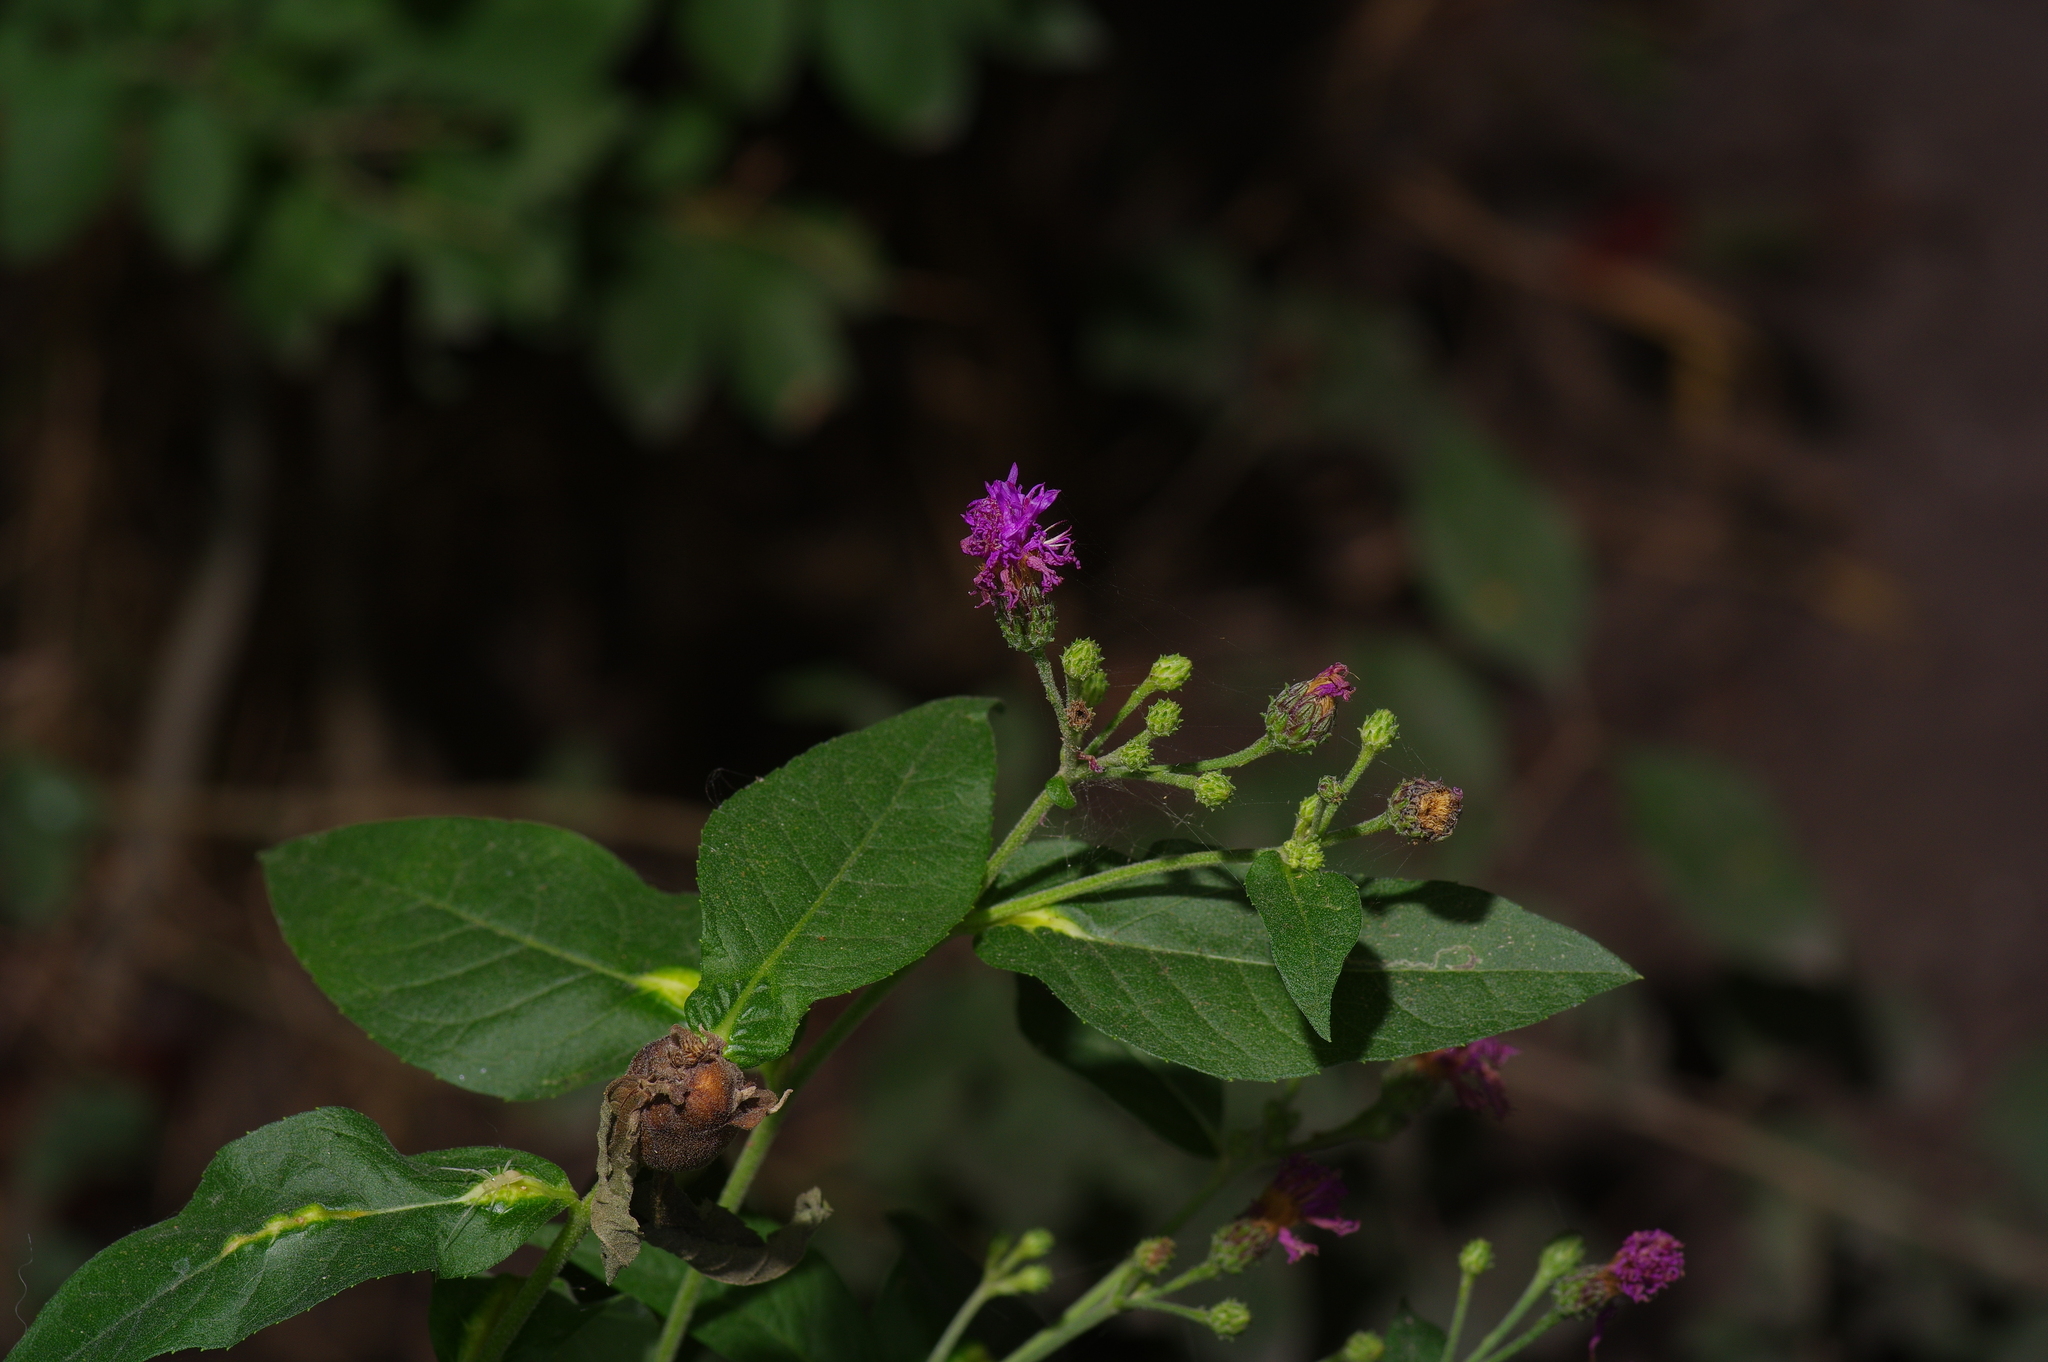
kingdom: Plantae
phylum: Tracheophyta
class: Magnoliopsida
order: Asterales
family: Asteraceae
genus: Vernonia
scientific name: Vernonia baldwinii
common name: Western ironweed
